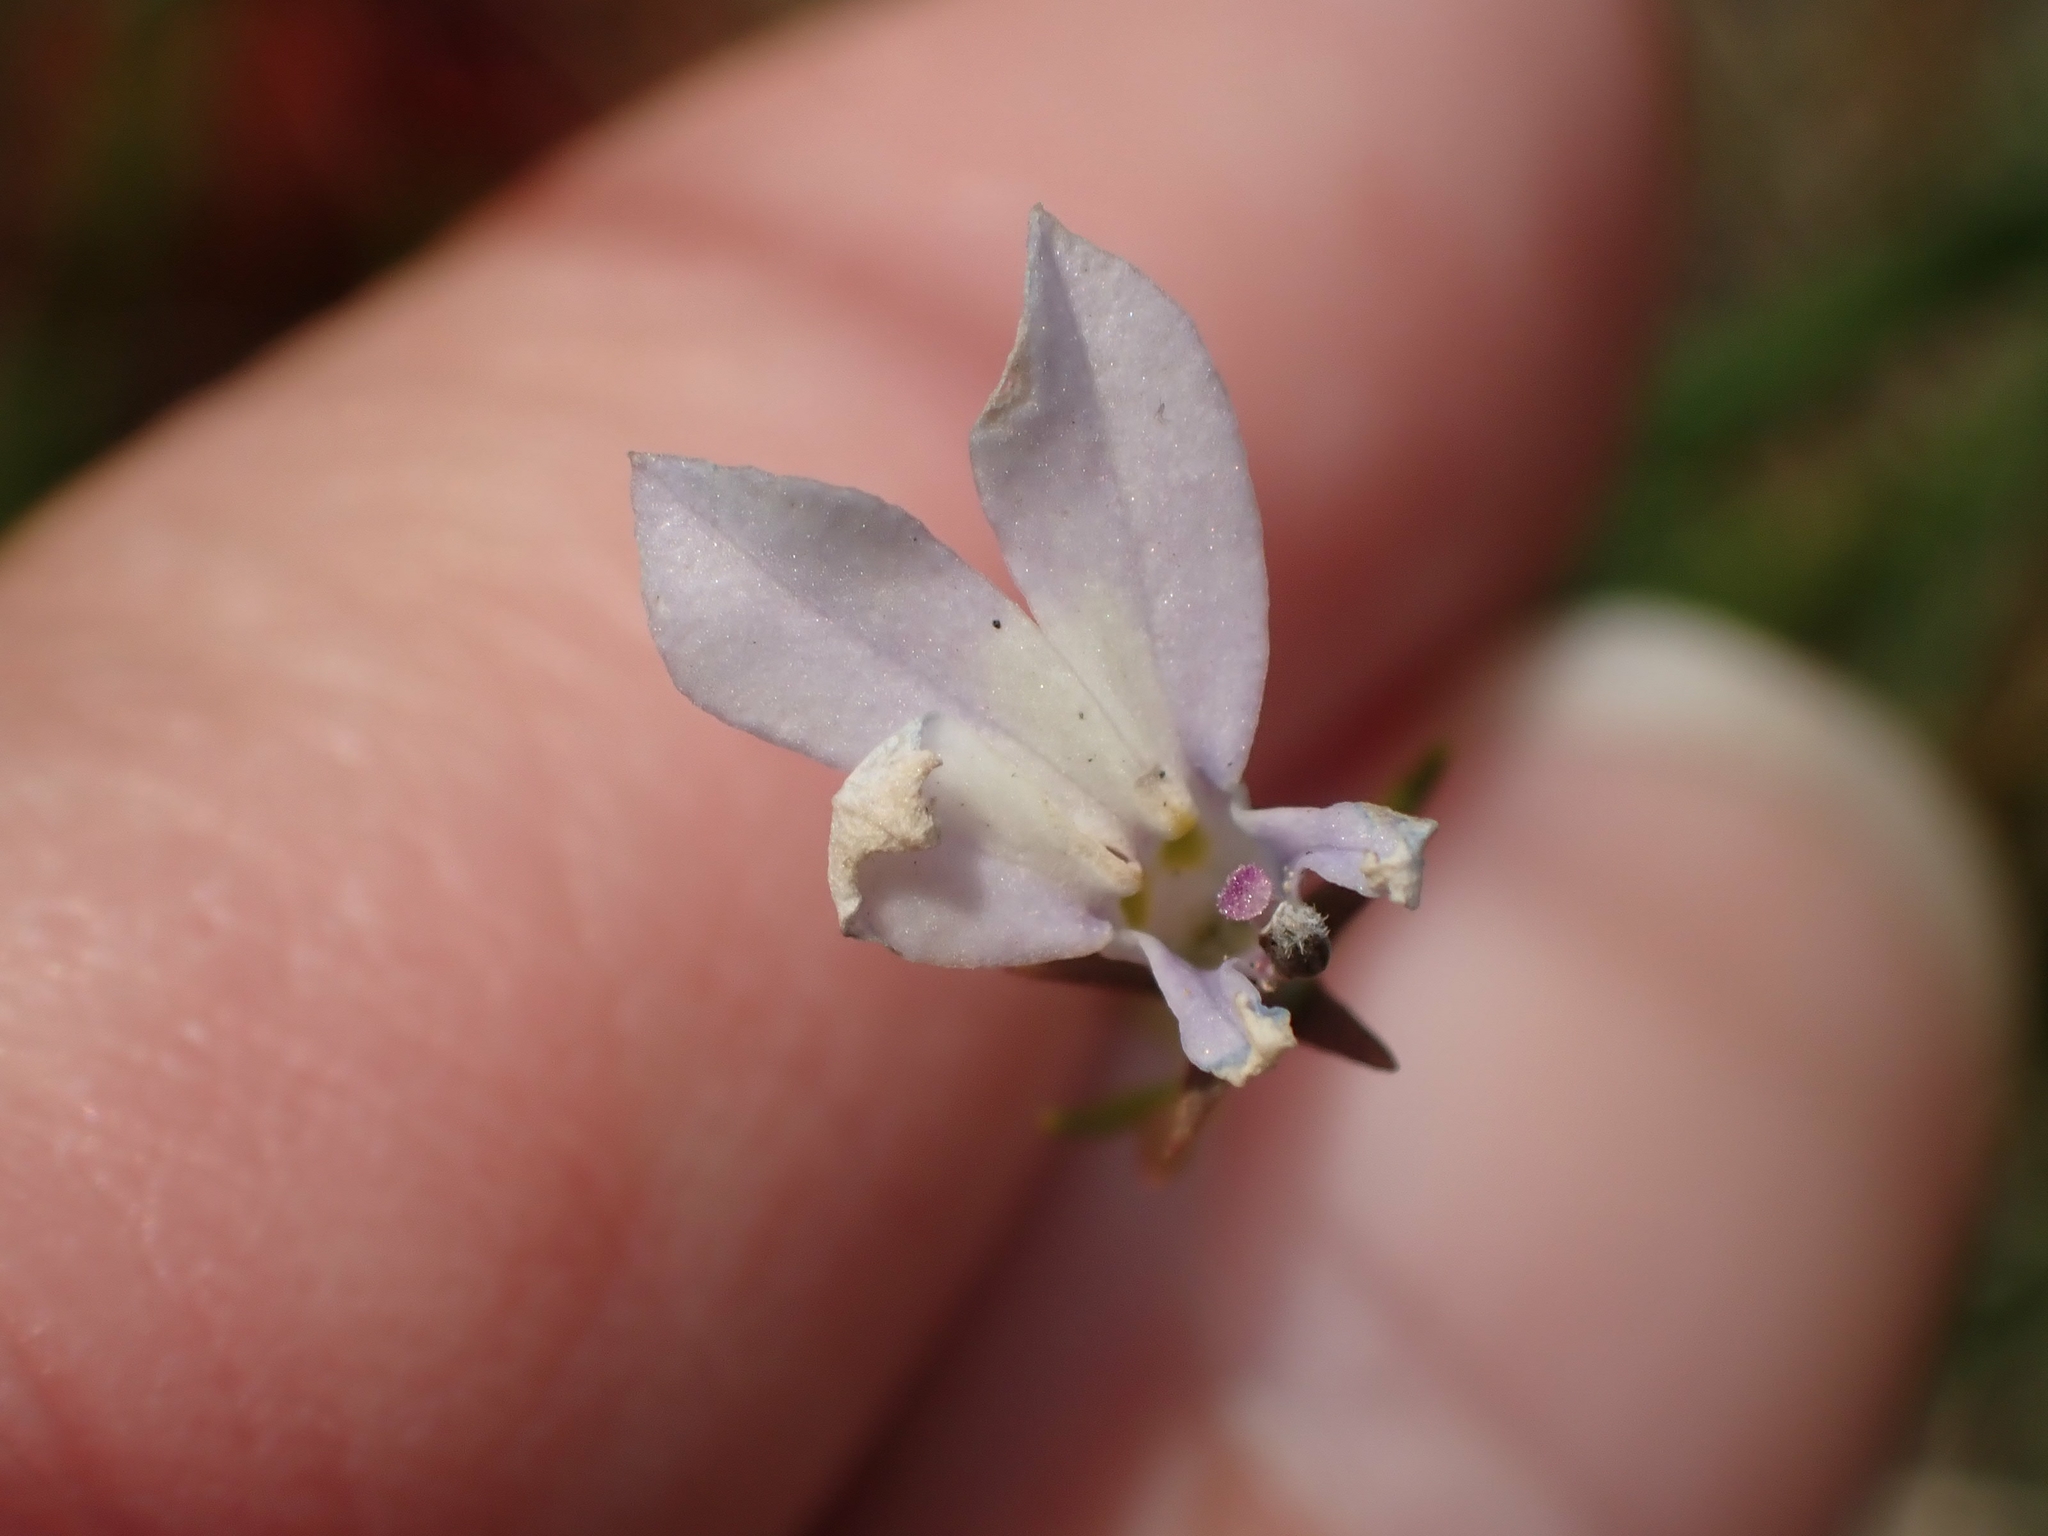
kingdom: Plantae
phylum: Tracheophyta
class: Magnoliopsida
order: Asterales
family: Campanulaceae
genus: Lobelia
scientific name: Lobelia kalmii
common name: Kalm's lobelia
